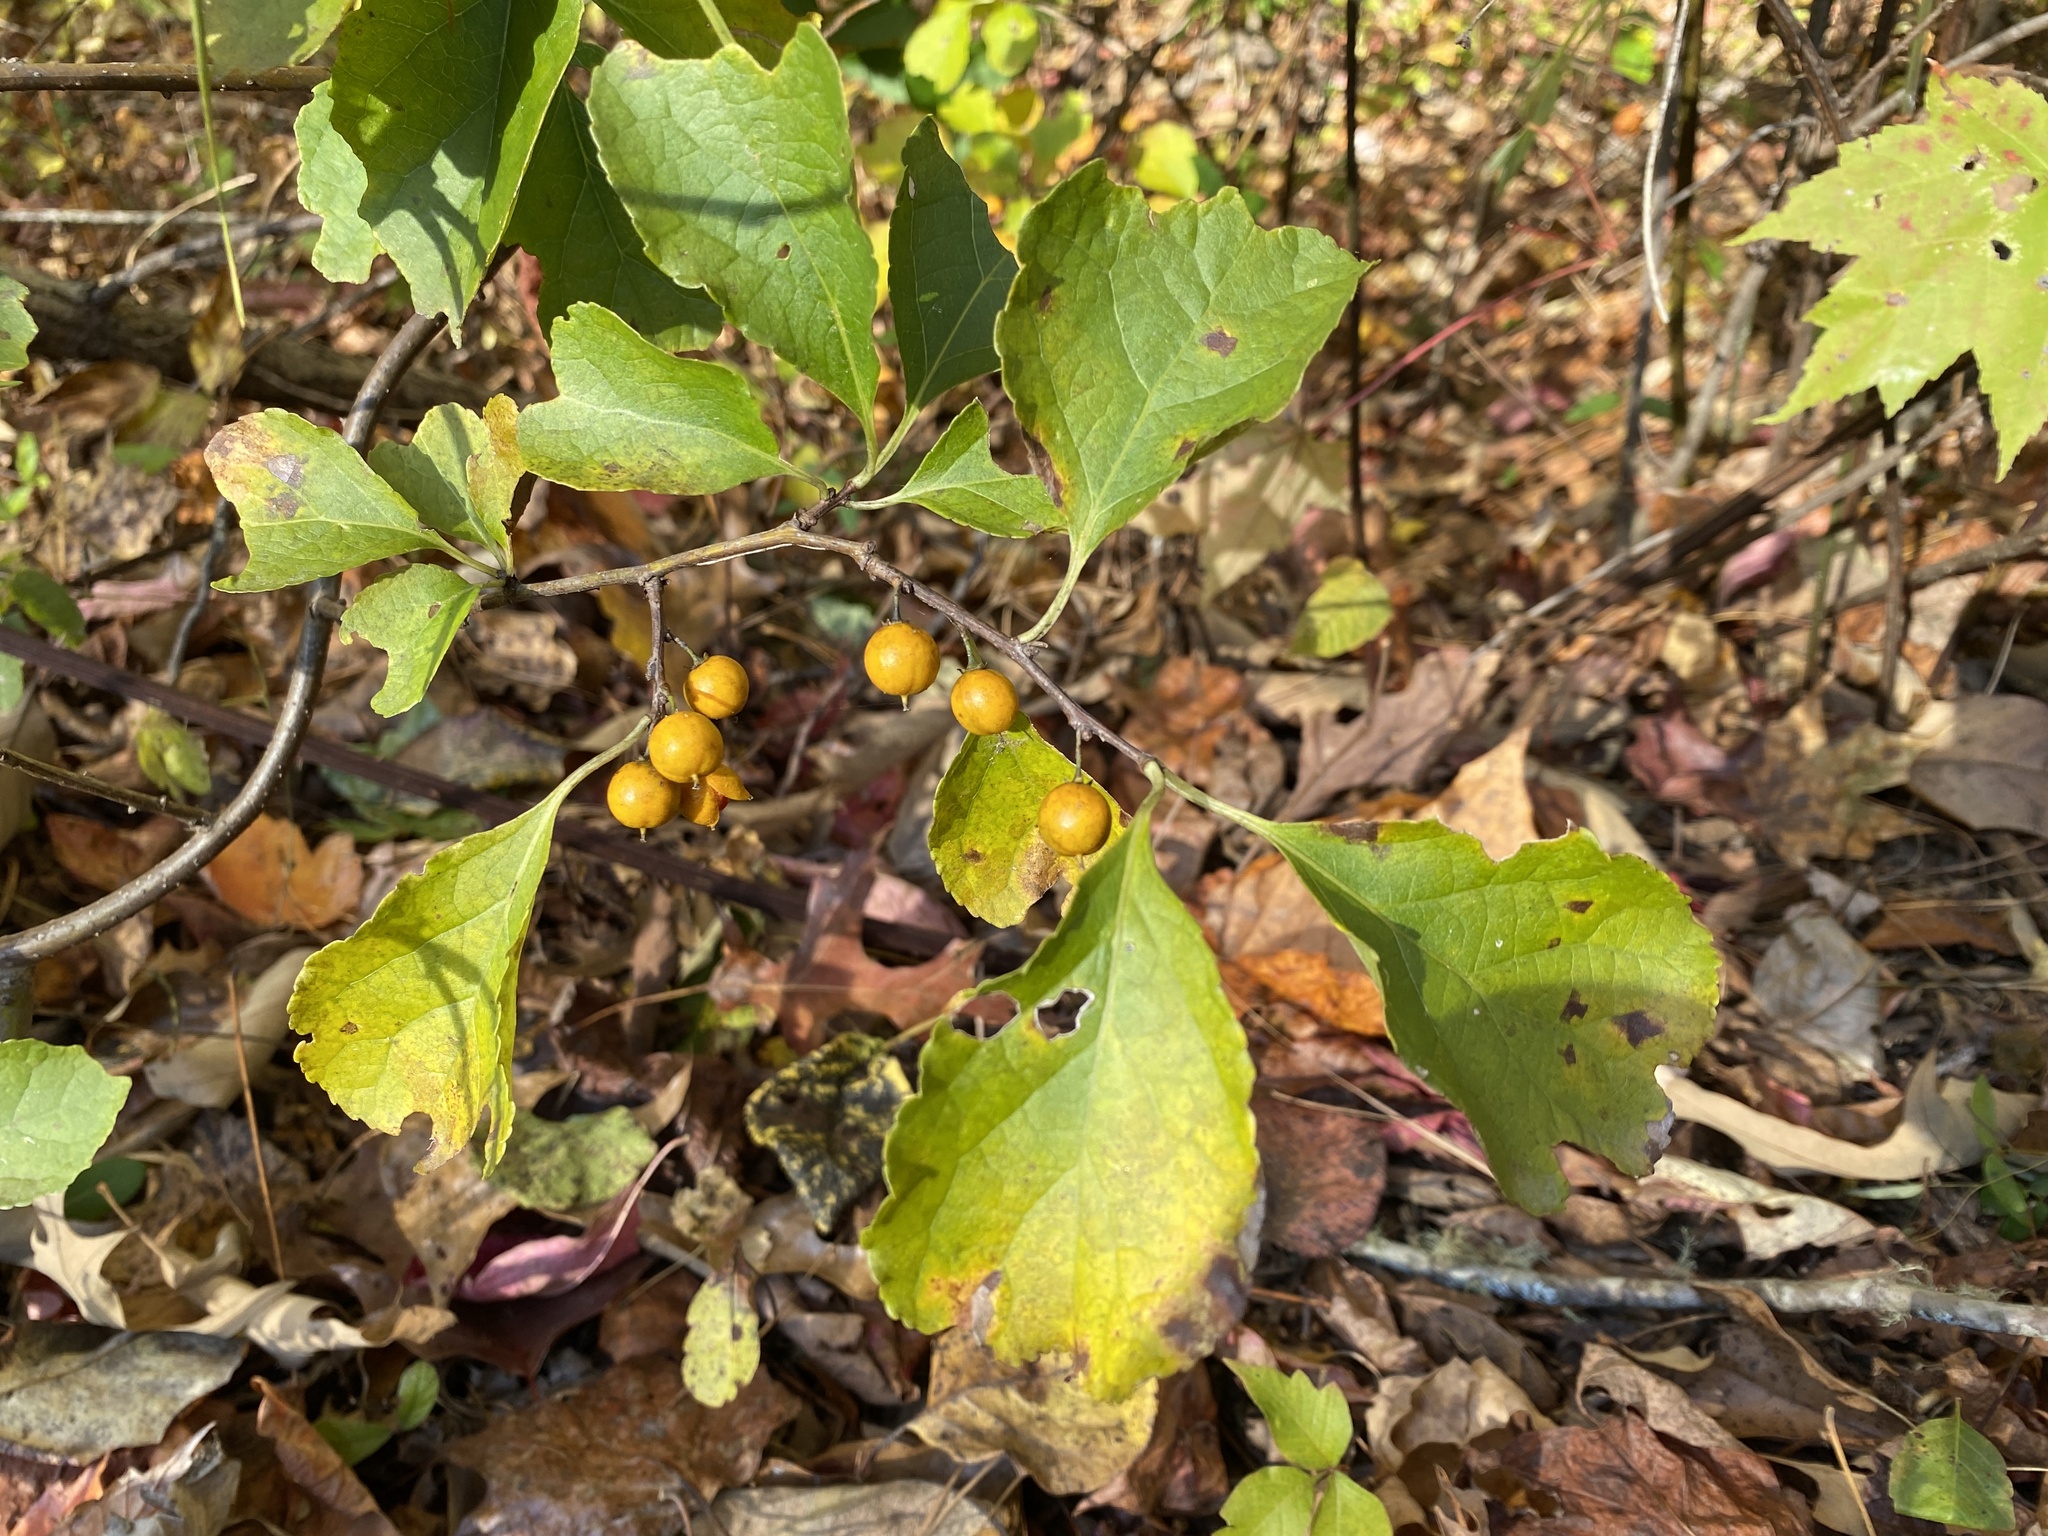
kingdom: Plantae
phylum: Tracheophyta
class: Magnoliopsida
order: Celastrales
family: Celastraceae
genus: Celastrus
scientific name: Celastrus orbiculatus
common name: Oriental bittersweet
